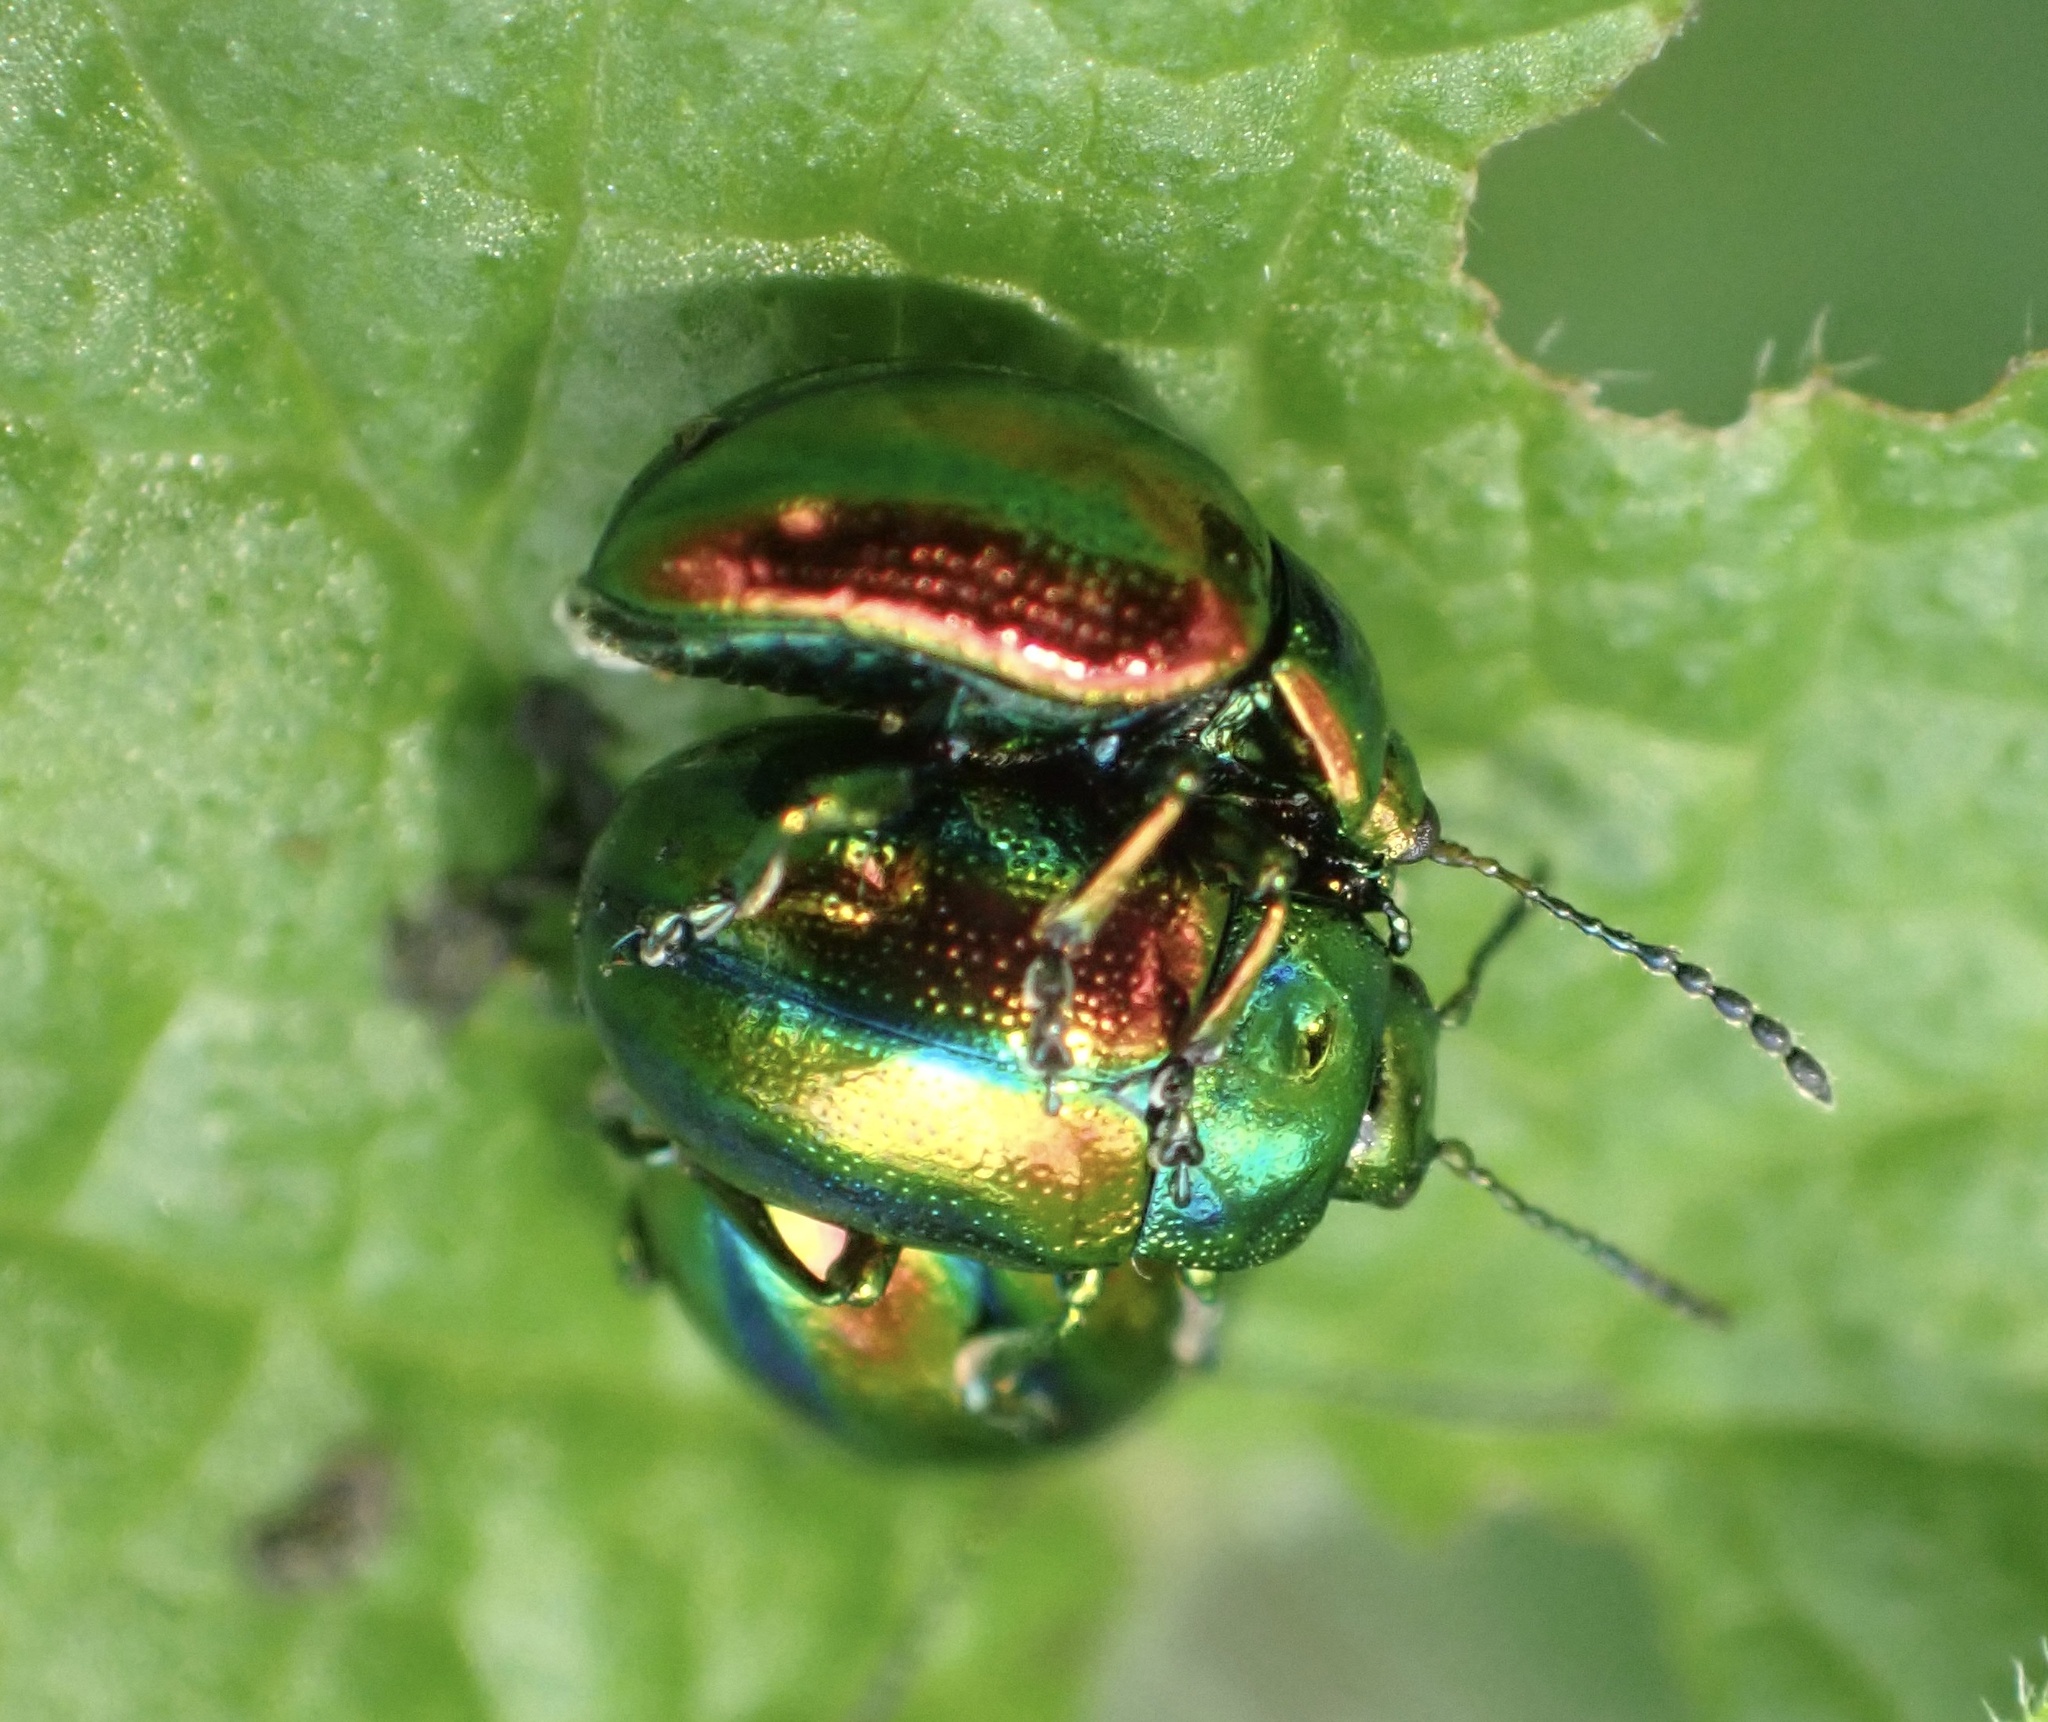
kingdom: Animalia
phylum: Arthropoda
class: Insecta
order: Coleoptera
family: Chrysomelidae
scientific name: Chrysomelidae
